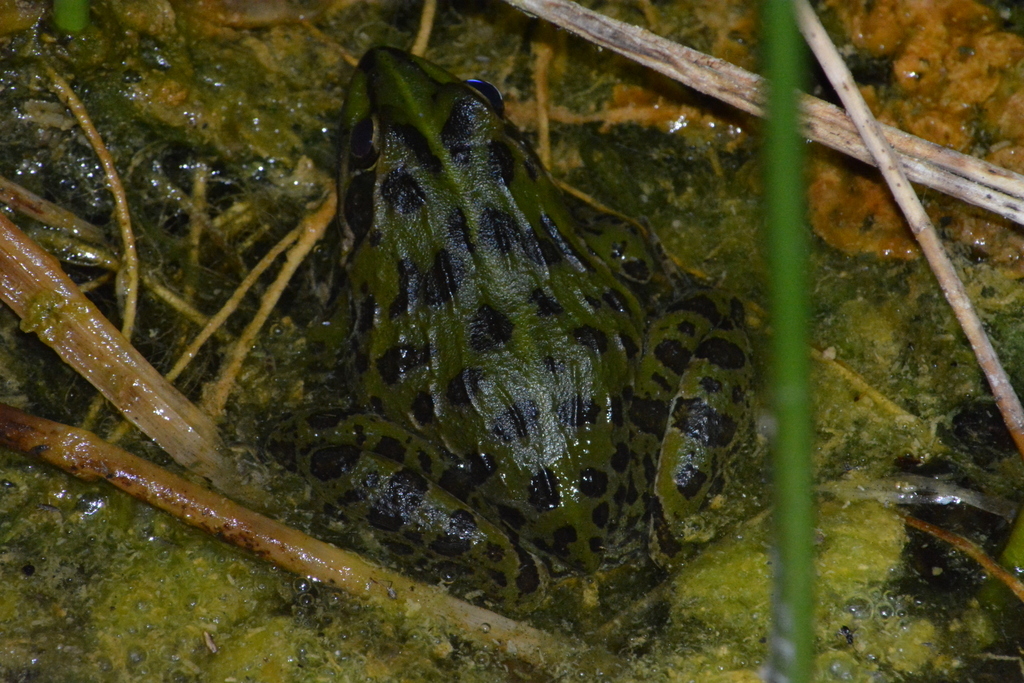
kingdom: Animalia
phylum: Chordata
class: Amphibia
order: Anura
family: Pyxicephalidae
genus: Amietia
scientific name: Amietia delalandii
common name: Delalande's river frog
